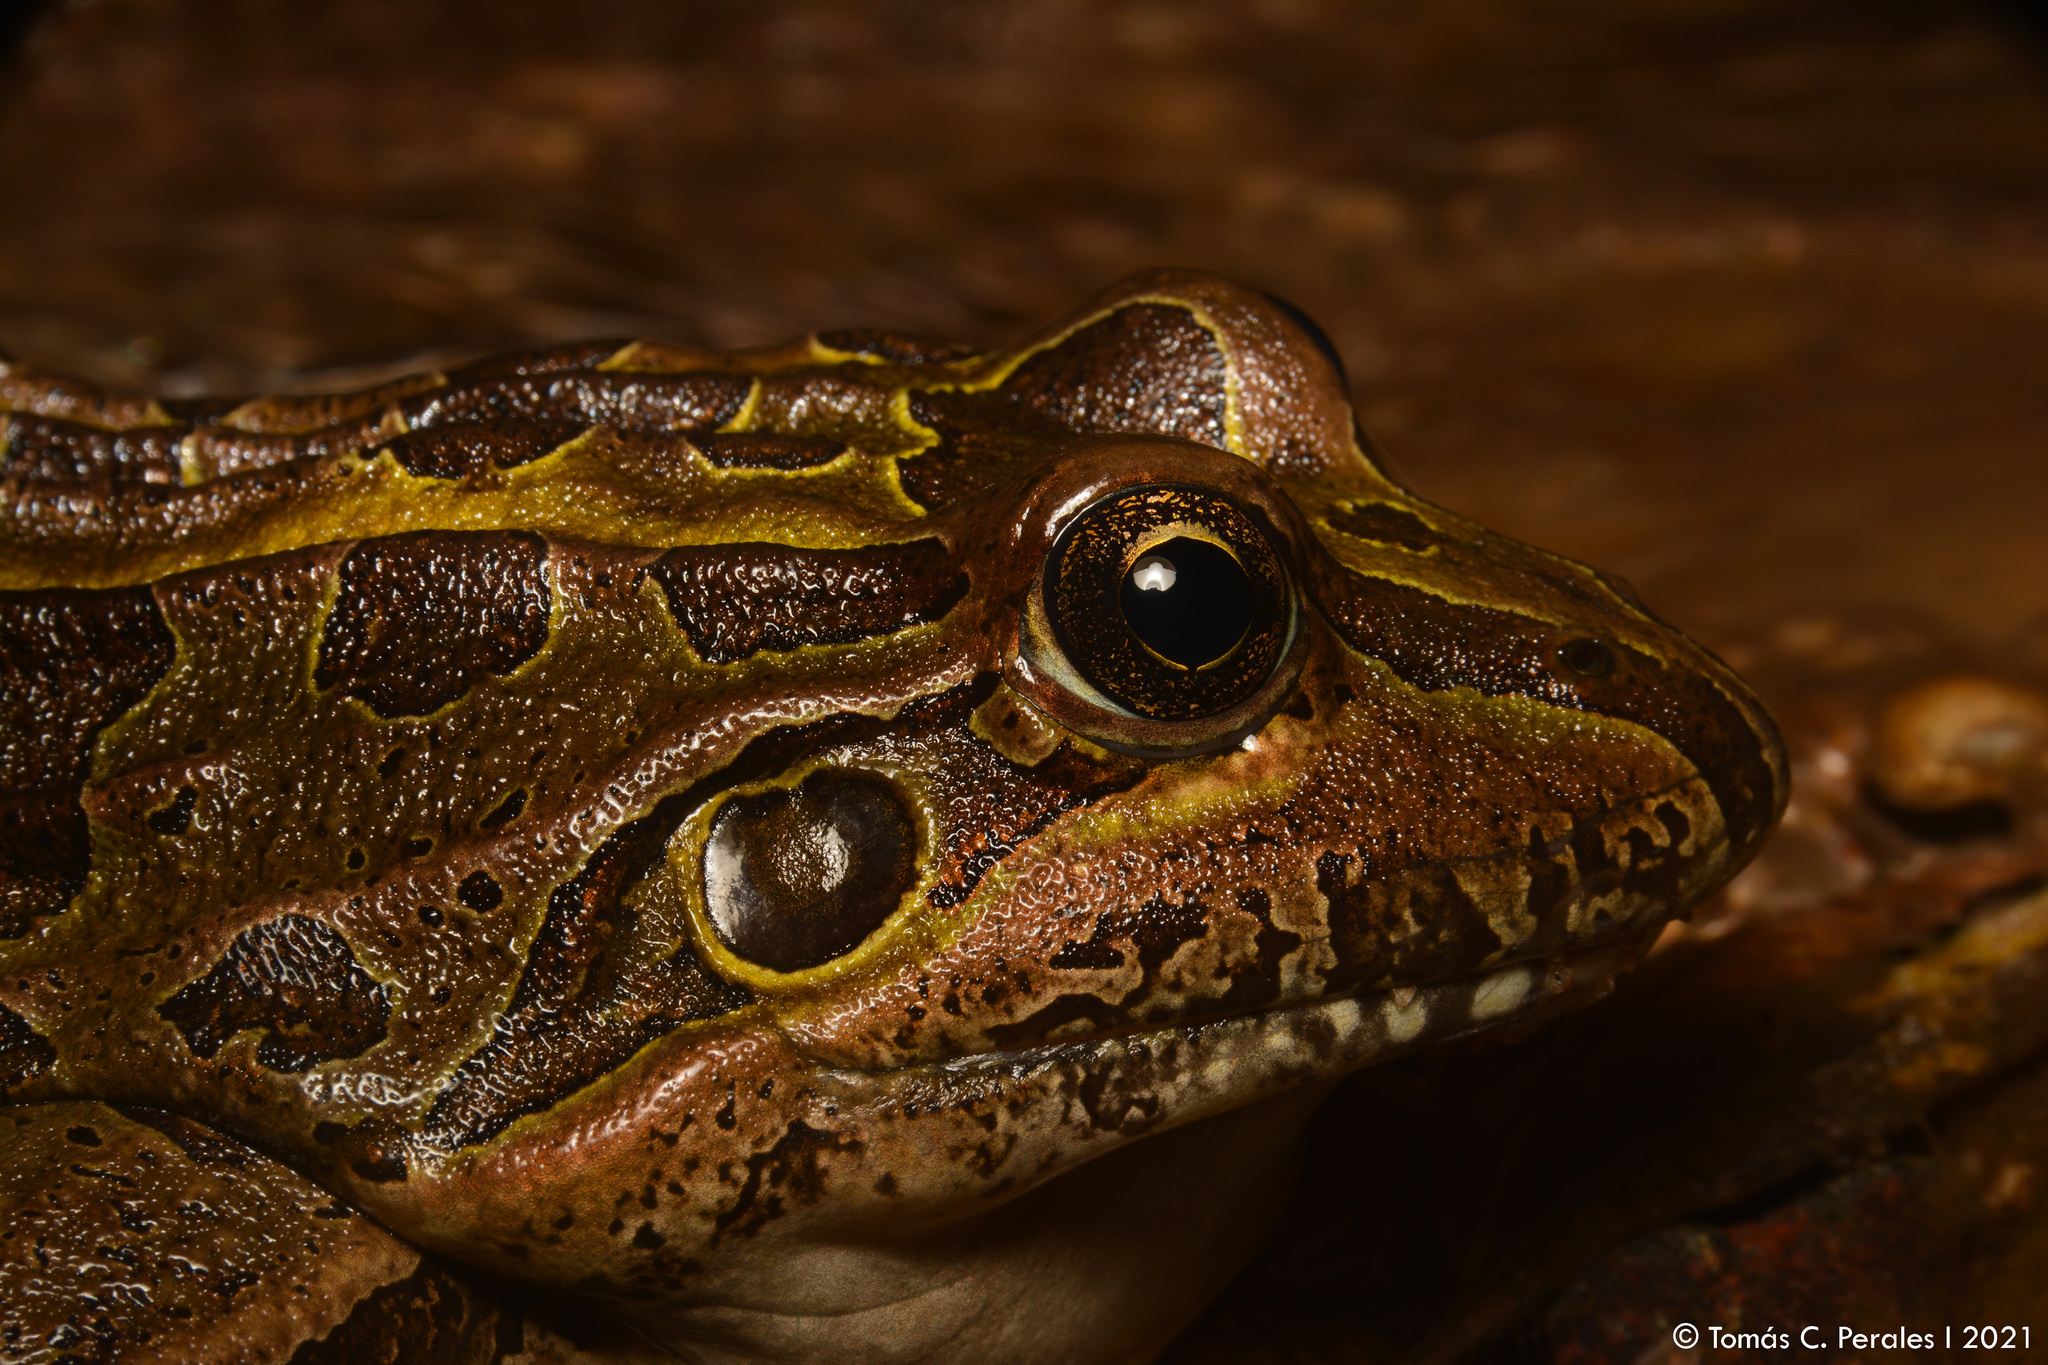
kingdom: Animalia
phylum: Chordata
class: Amphibia
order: Anura
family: Leptodactylidae
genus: Leptodactylus
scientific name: Leptodactylus luctator
